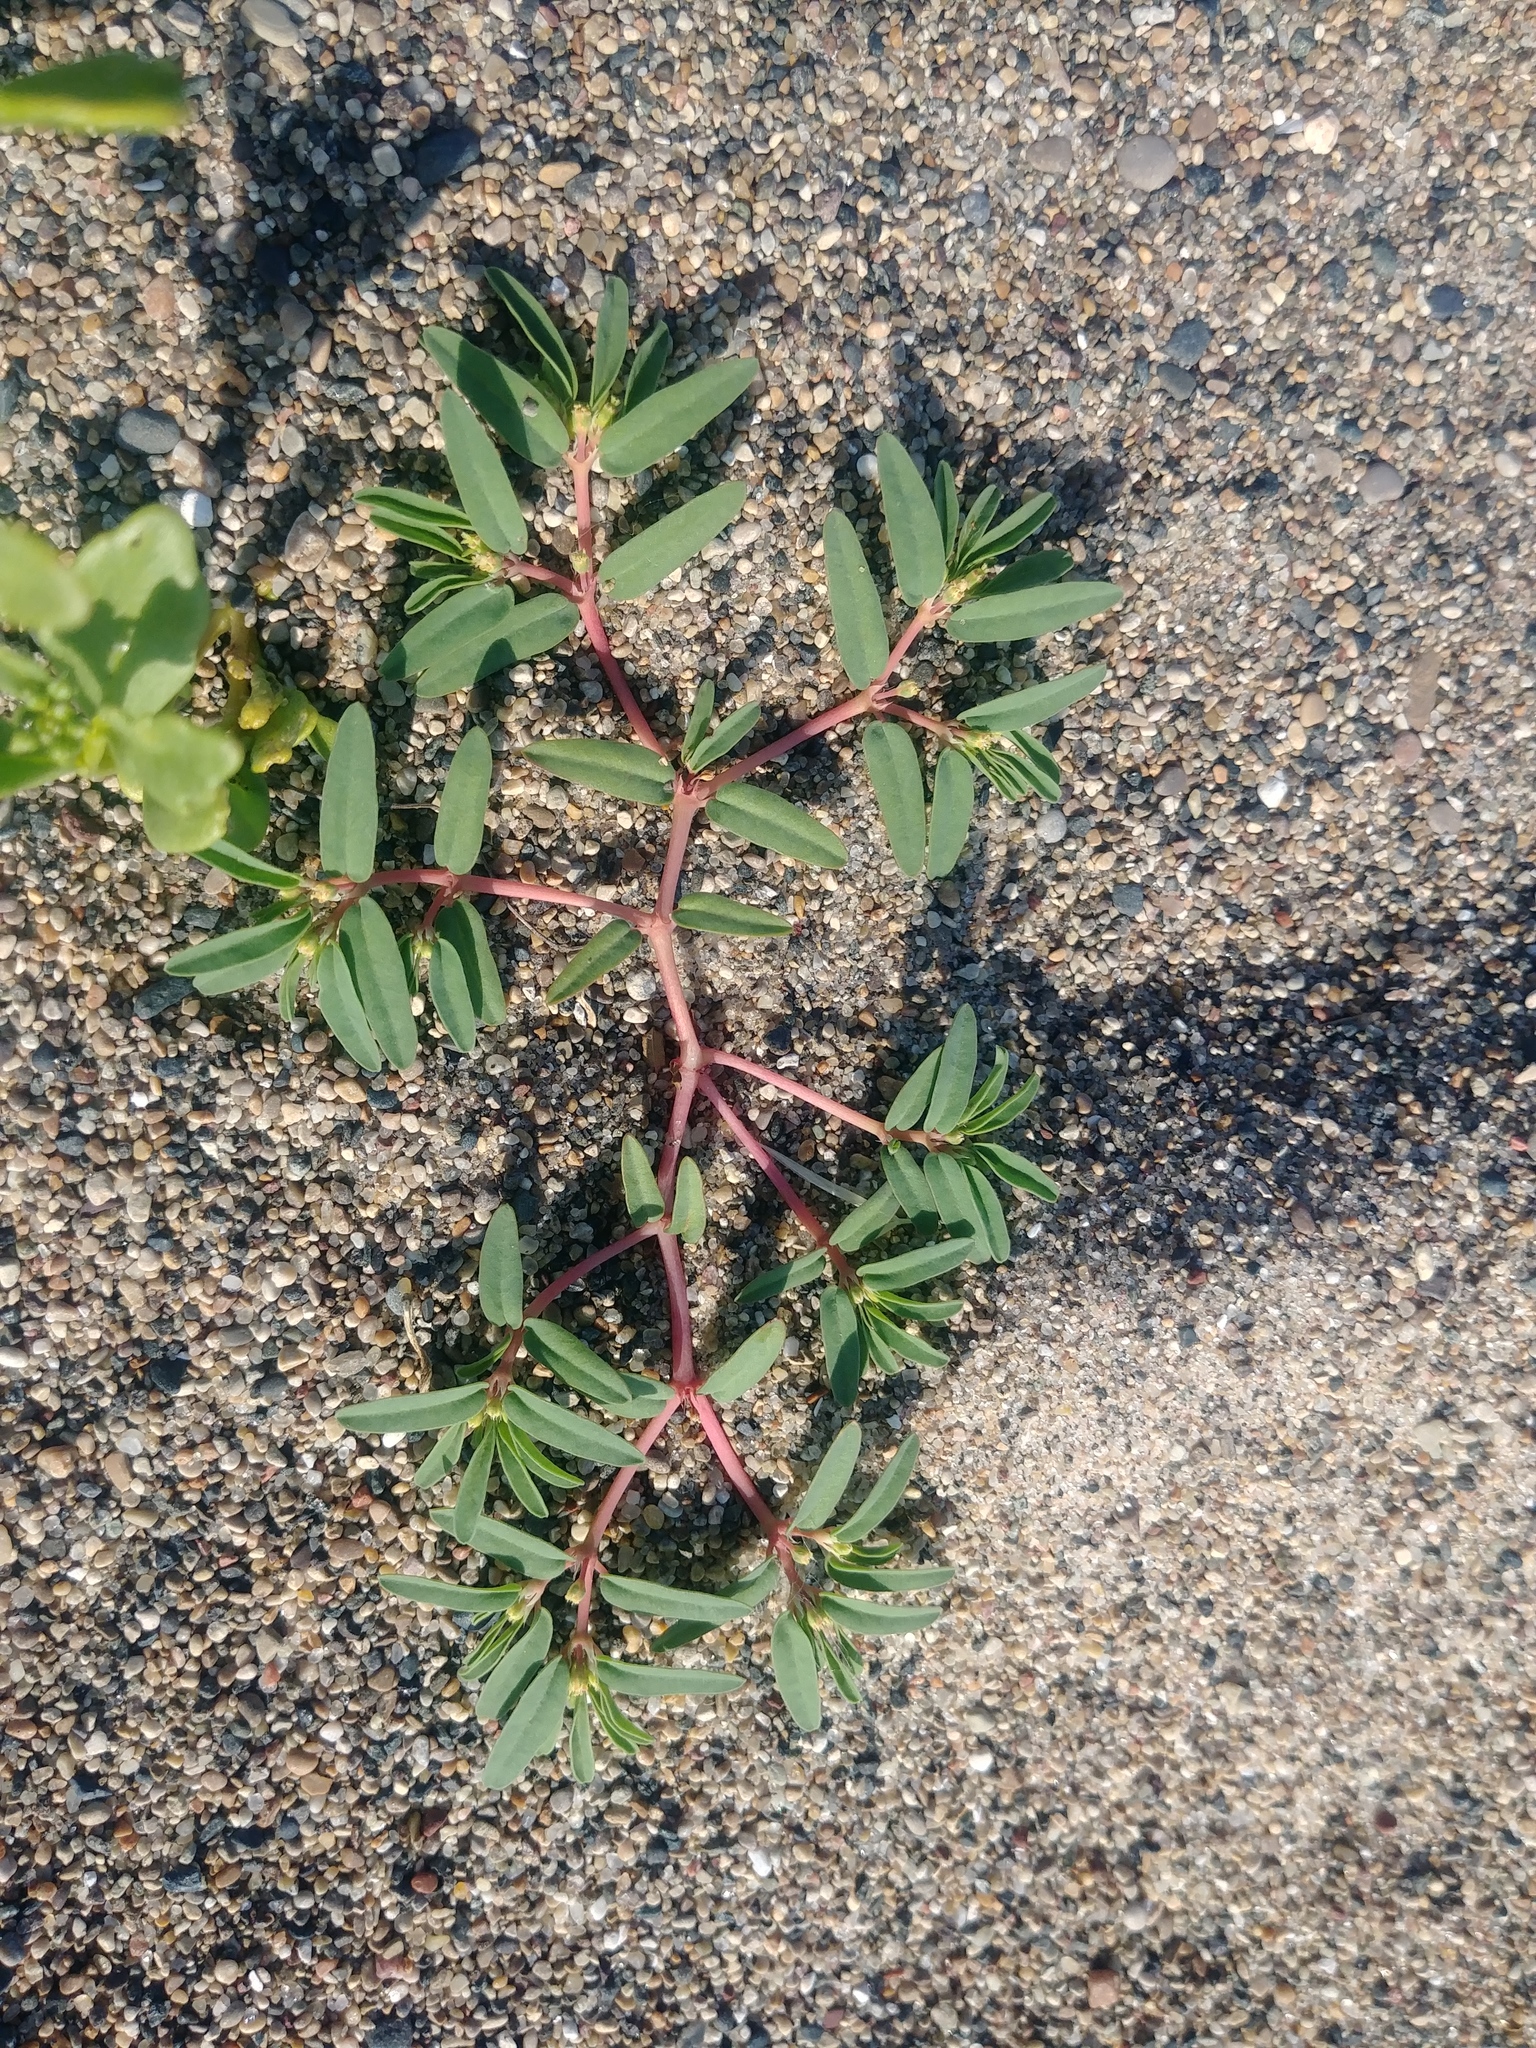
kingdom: Plantae
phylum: Tracheophyta
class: Magnoliopsida
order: Malpighiales
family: Euphorbiaceae
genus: Euphorbia
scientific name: Euphorbia polygonifolia
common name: Knotweed spurge
